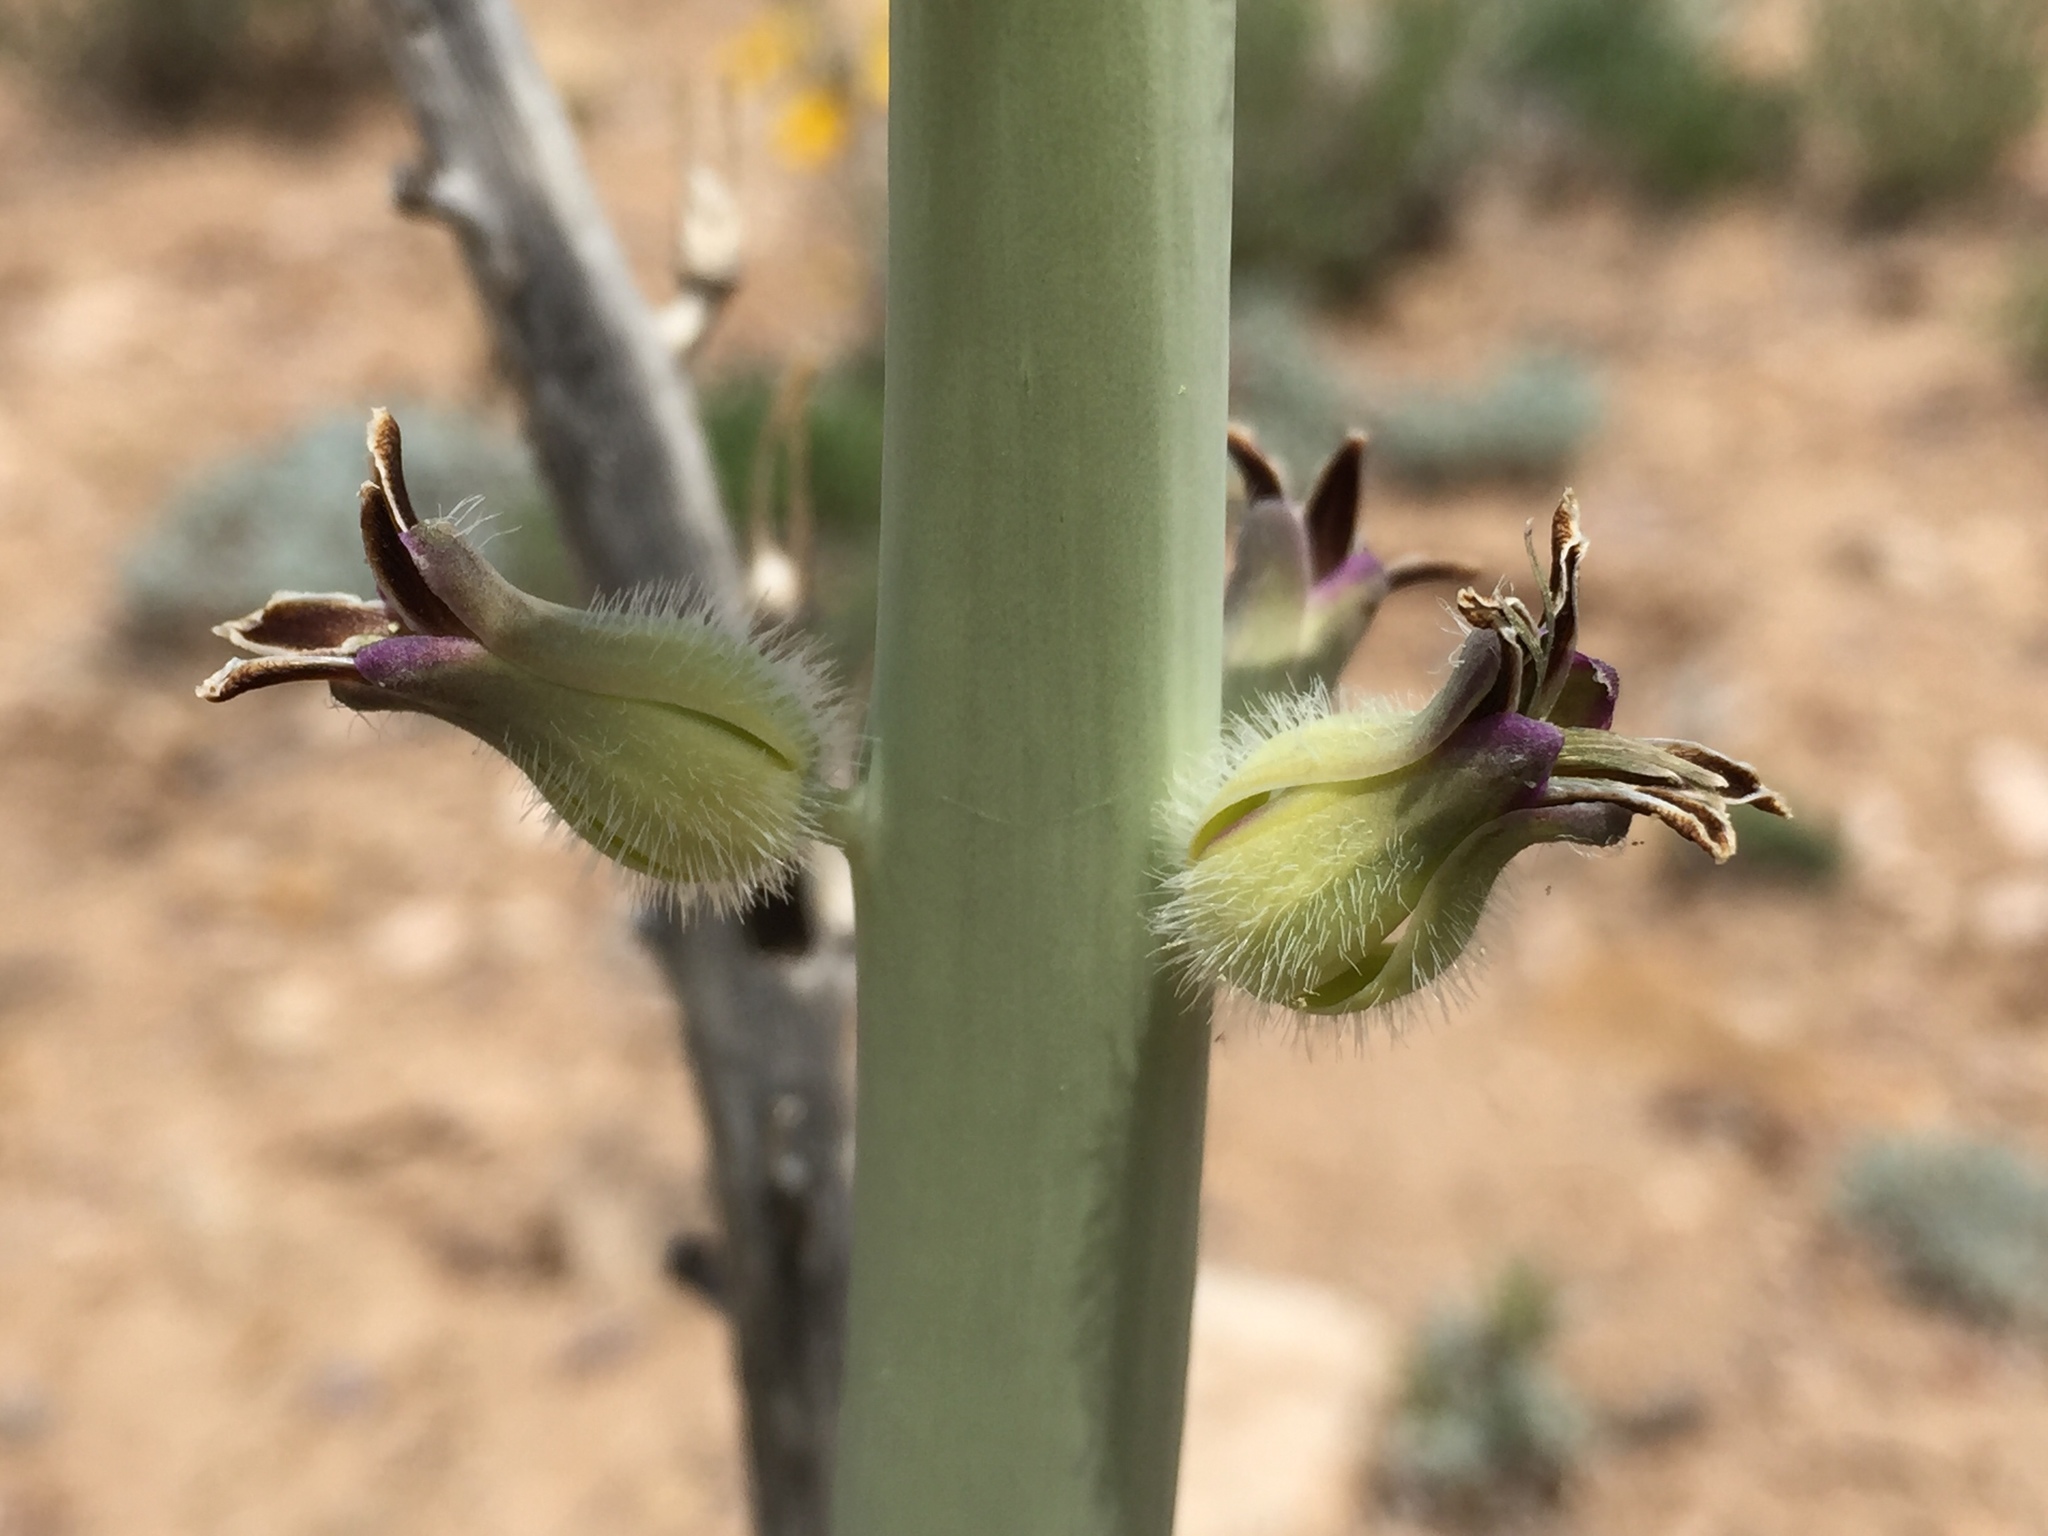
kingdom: Plantae
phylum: Tracheophyta
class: Magnoliopsida
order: Brassicales
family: Brassicaceae
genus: Streptanthus
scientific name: Streptanthus crassicaulis
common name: Thick-stem wild cabbage
